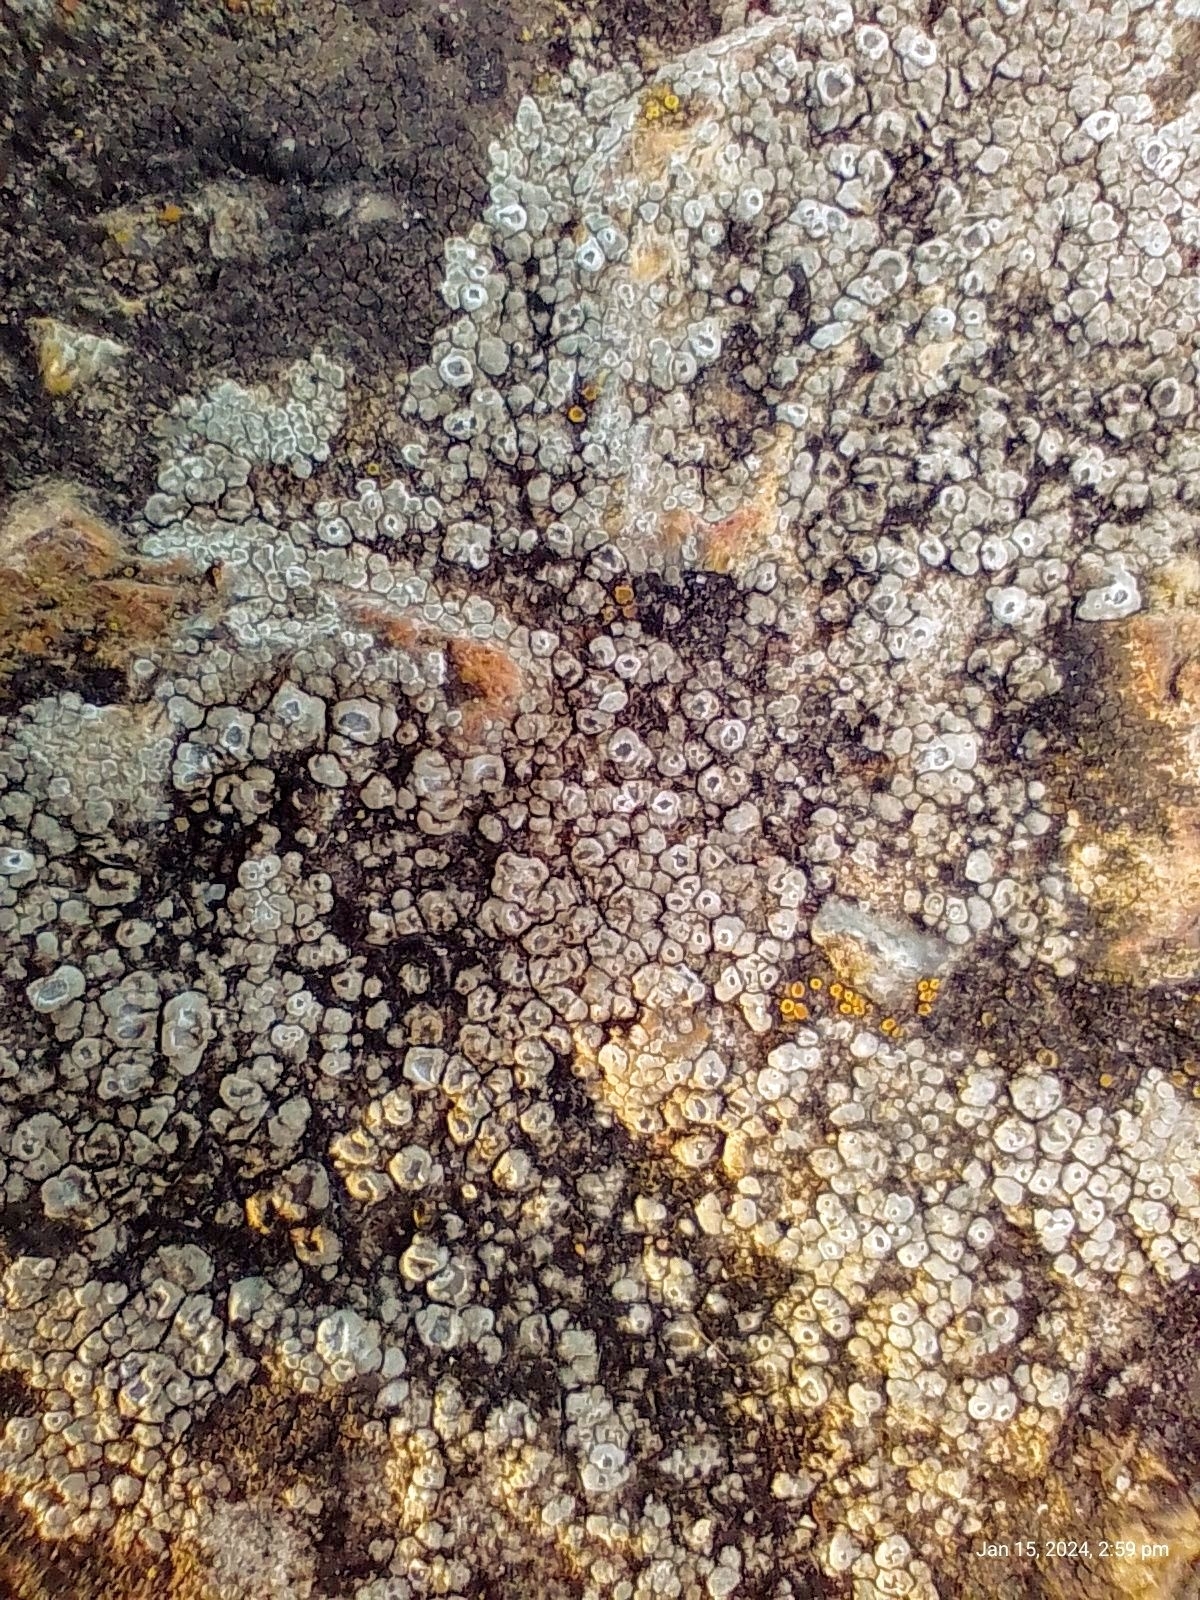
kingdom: Fungi
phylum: Ascomycota
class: Lecanoromycetes
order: Pertusariales
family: Megasporaceae
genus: Circinaria
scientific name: Circinaria contorta
